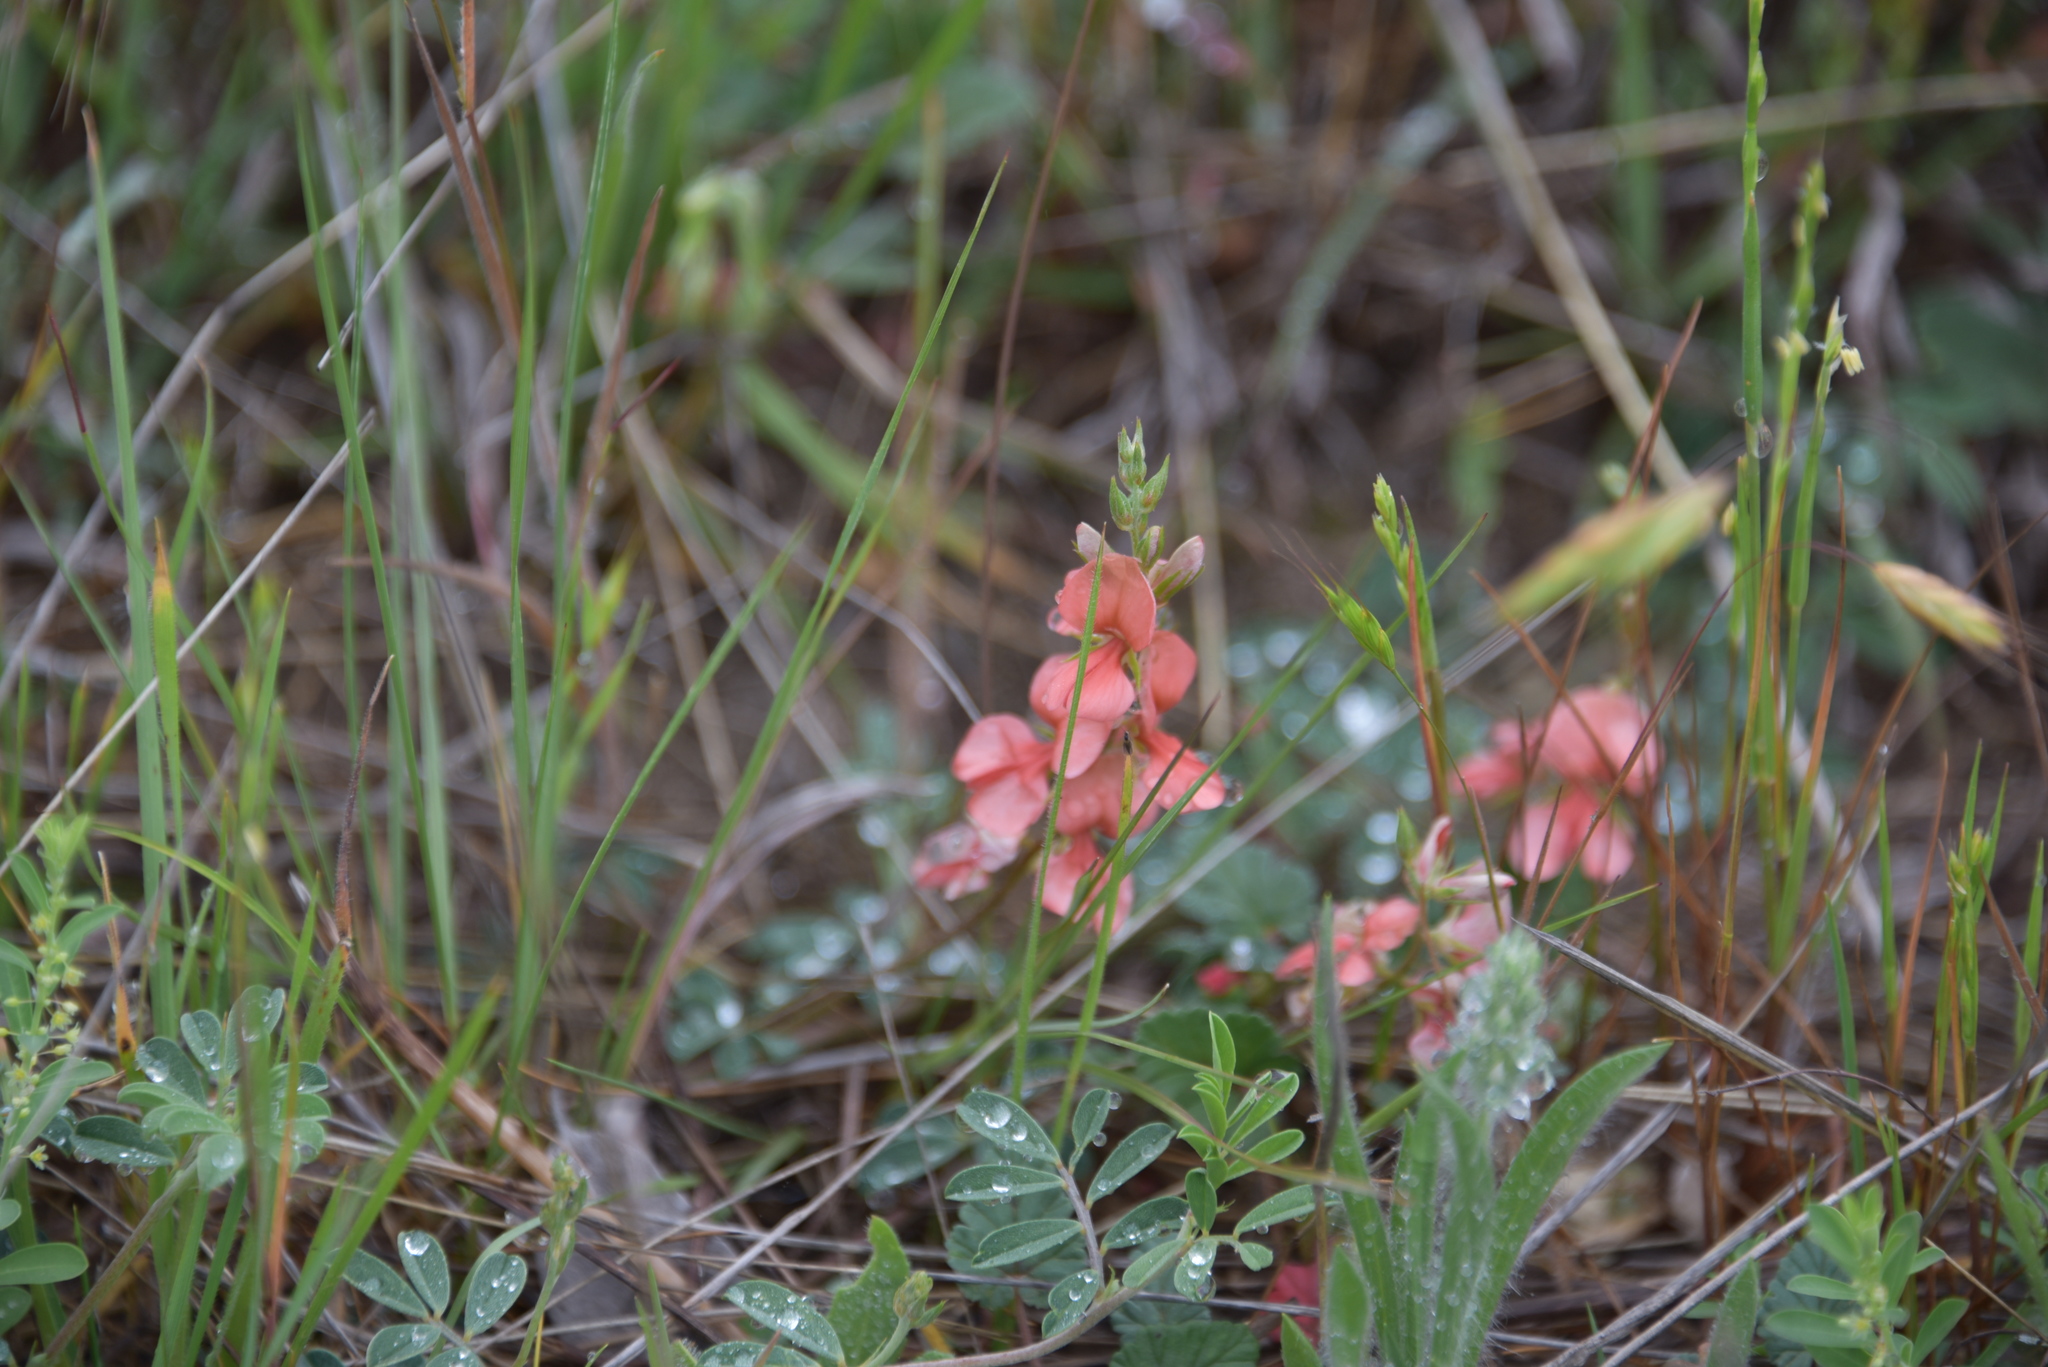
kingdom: Plantae
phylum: Tracheophyta
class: Magnoliopsida
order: Fabales
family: Fabaceae
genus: Indigofera
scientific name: Indigofera miniata
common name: Coast indigo
